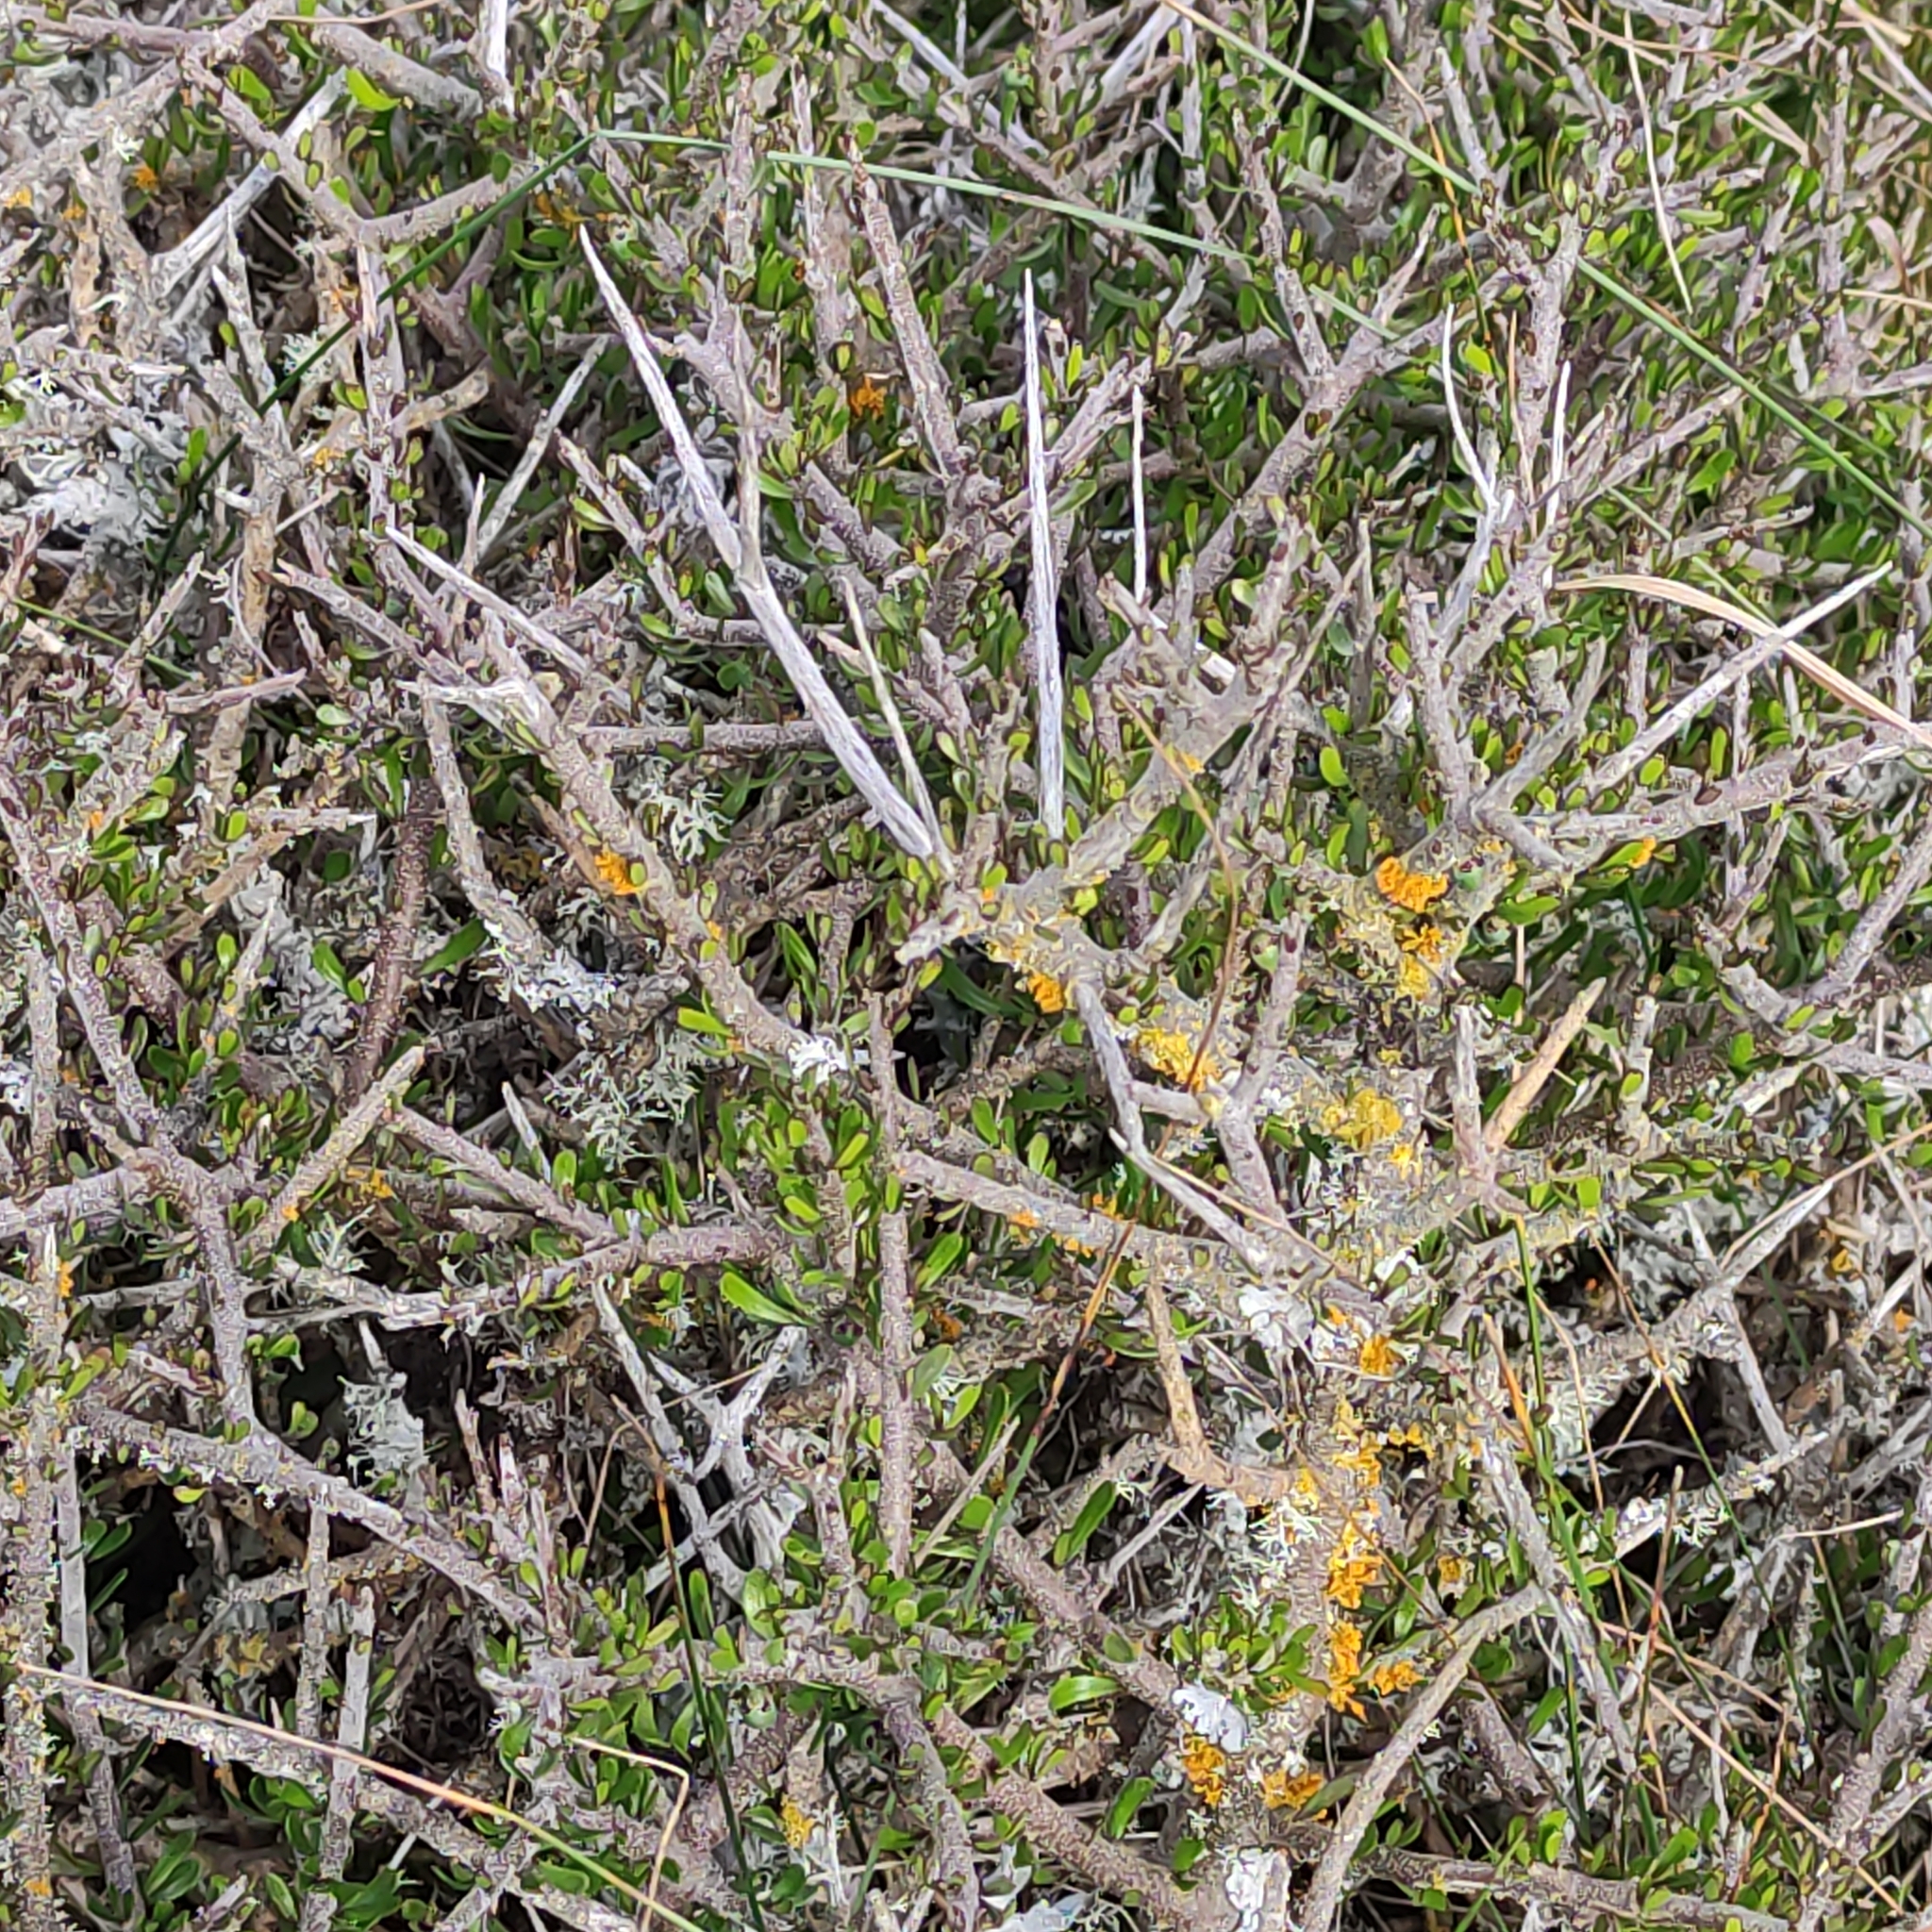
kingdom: Plantae
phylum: Tracheophyta
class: Magnoliopsida
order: Malpighiales
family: Violaceae
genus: Melicytus
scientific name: Melicytus alpinus
